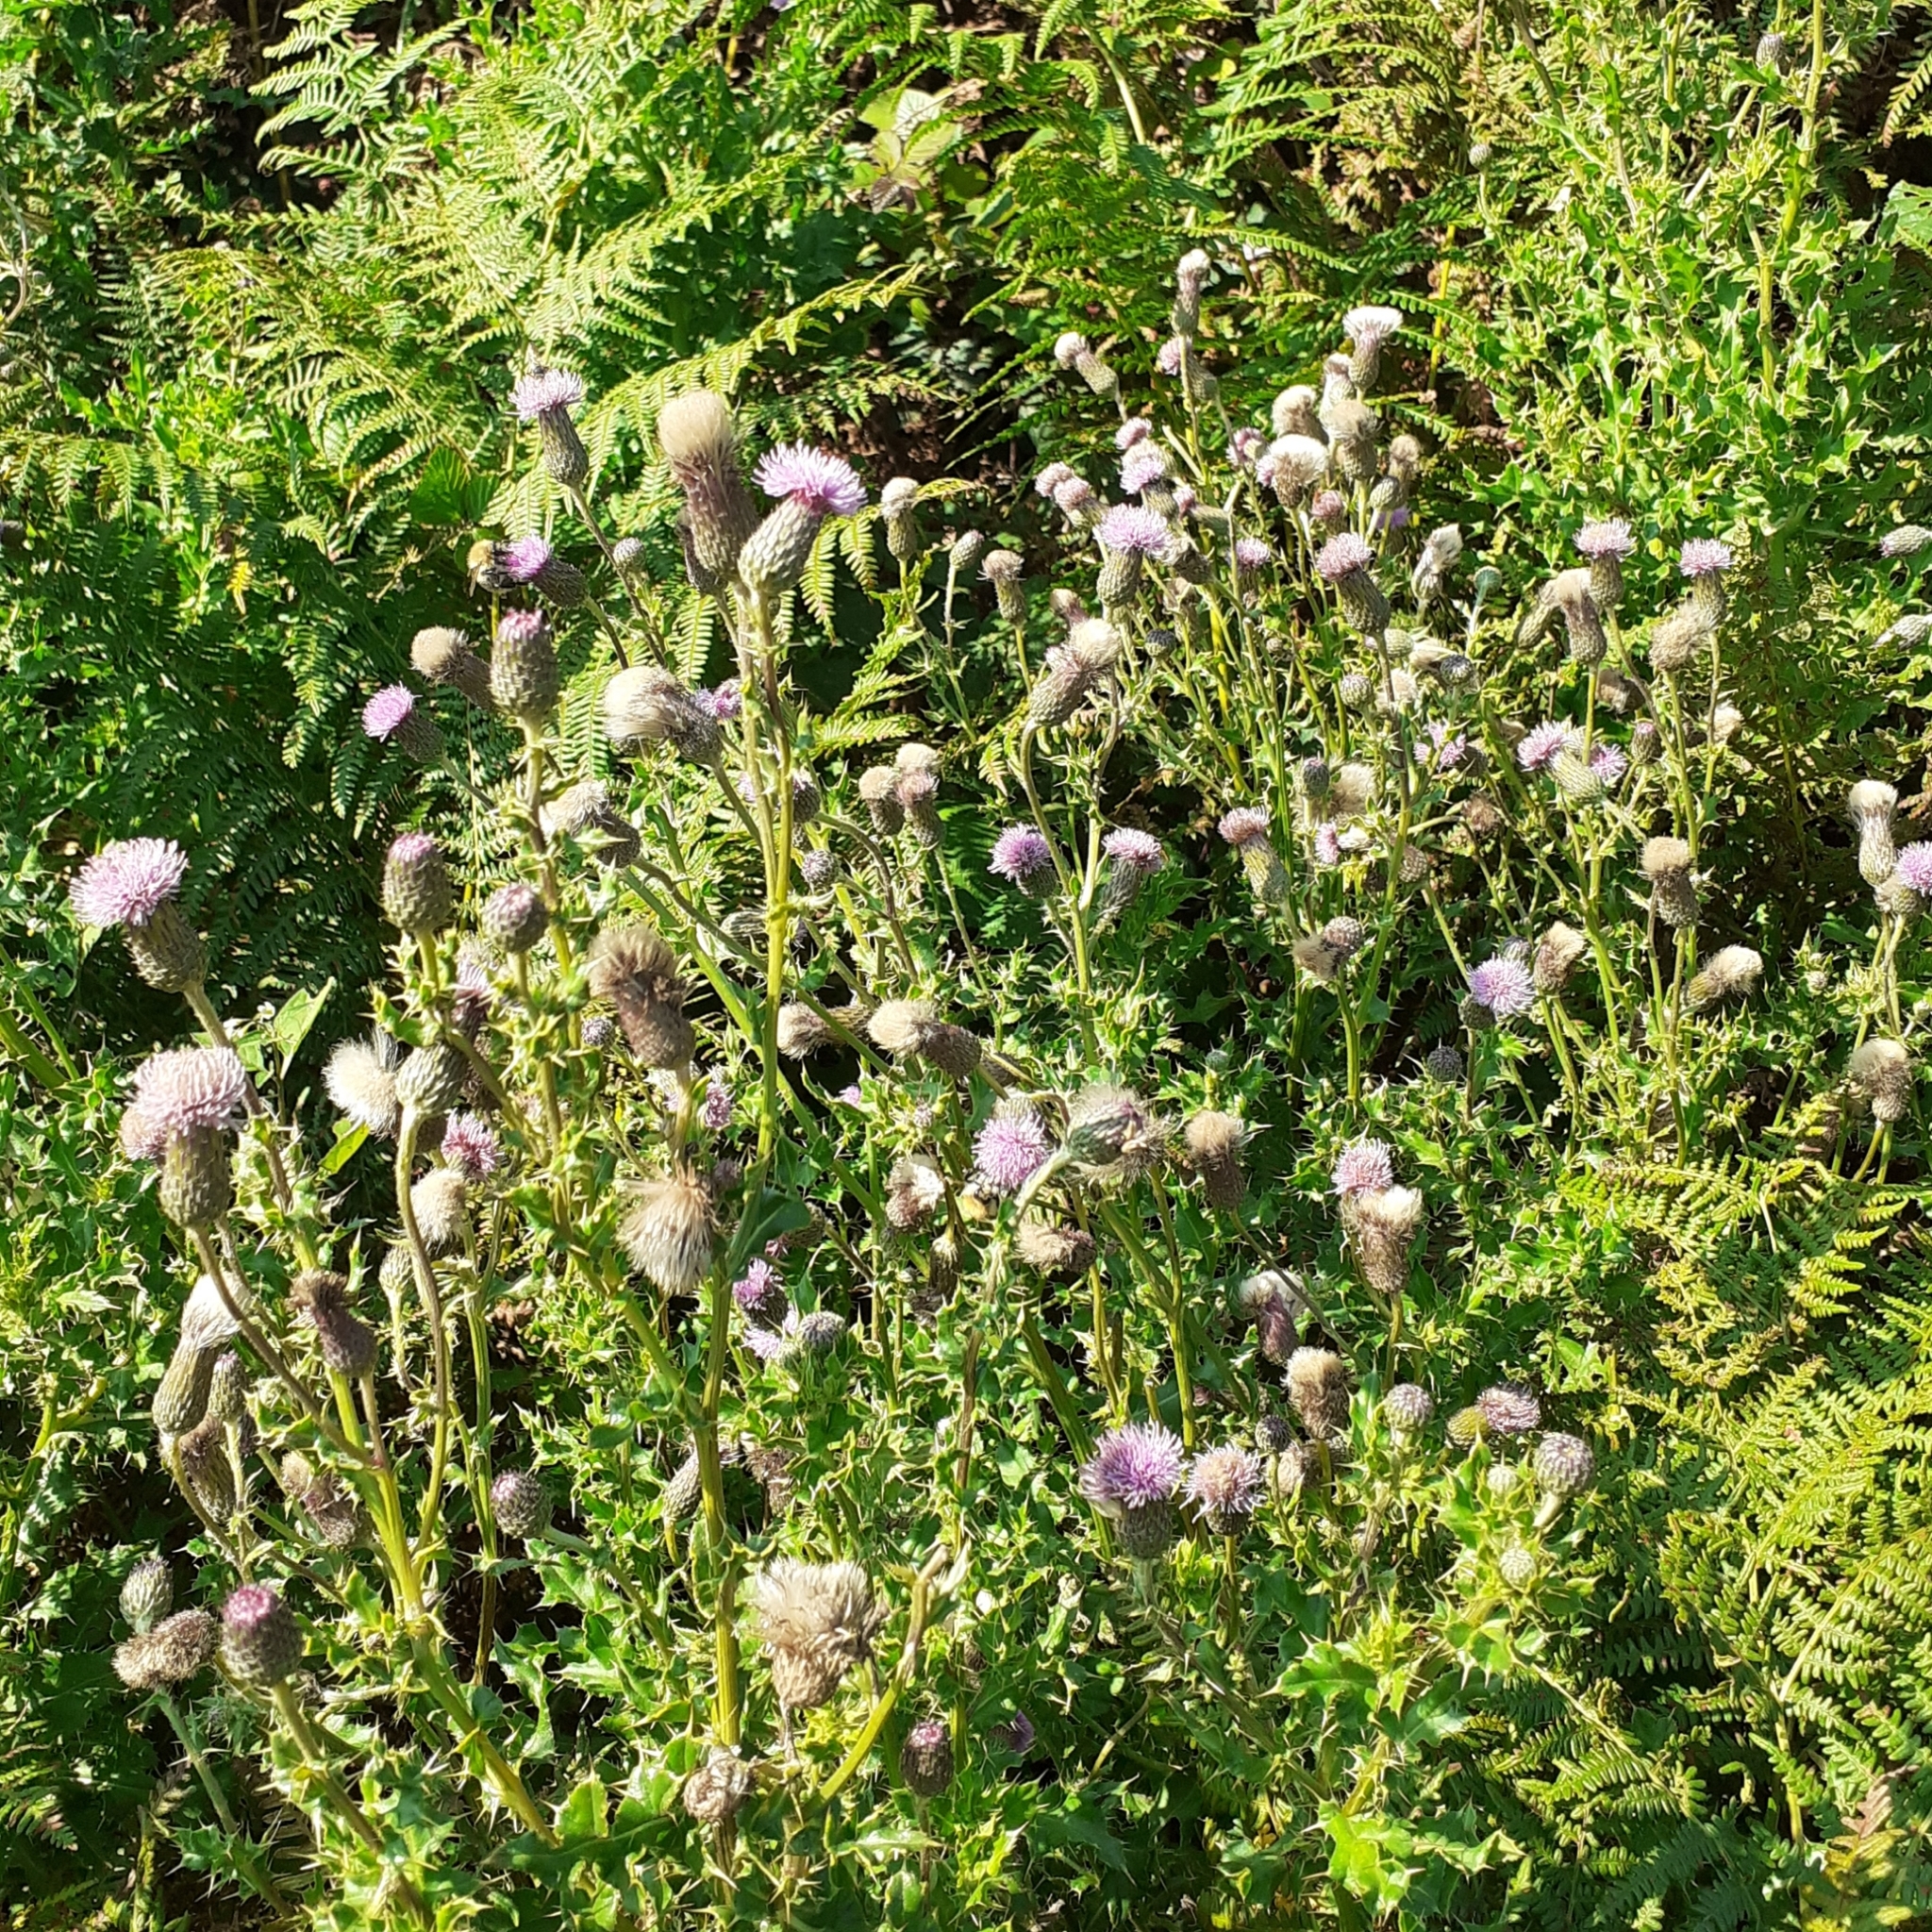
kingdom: Plantae
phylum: Tracheophyta
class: Magnoliopsida
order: Asterales
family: Asteraceae
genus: Cirsium
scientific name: Cirsium arvense
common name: Creeping thistle
